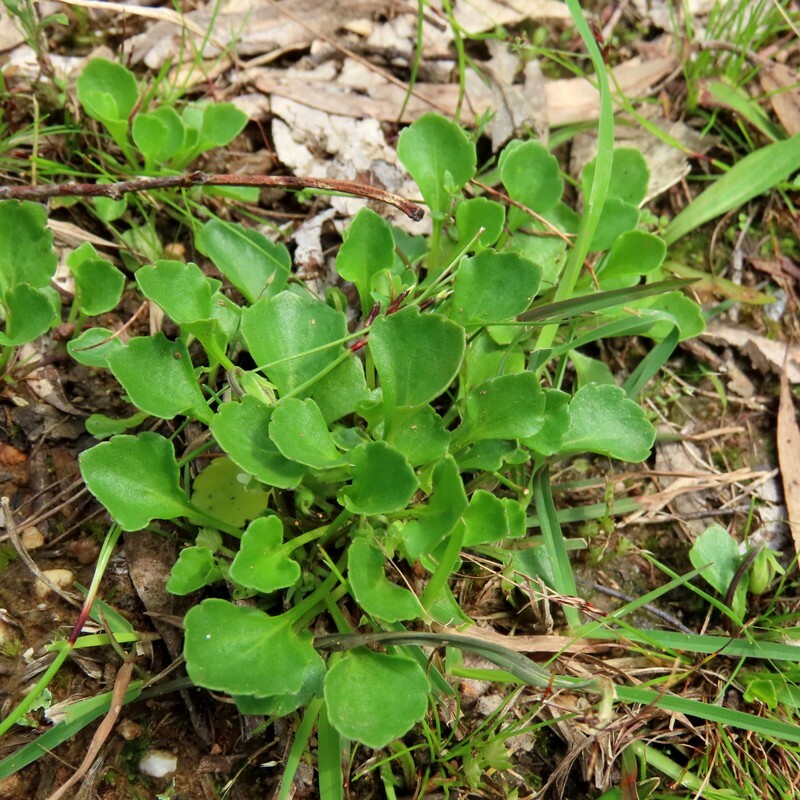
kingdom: Plantae
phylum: Tracheophyta
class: Magnoliopsida
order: Malpighiales
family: Violaceae
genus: Viola
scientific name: Viola cleistogamoides
